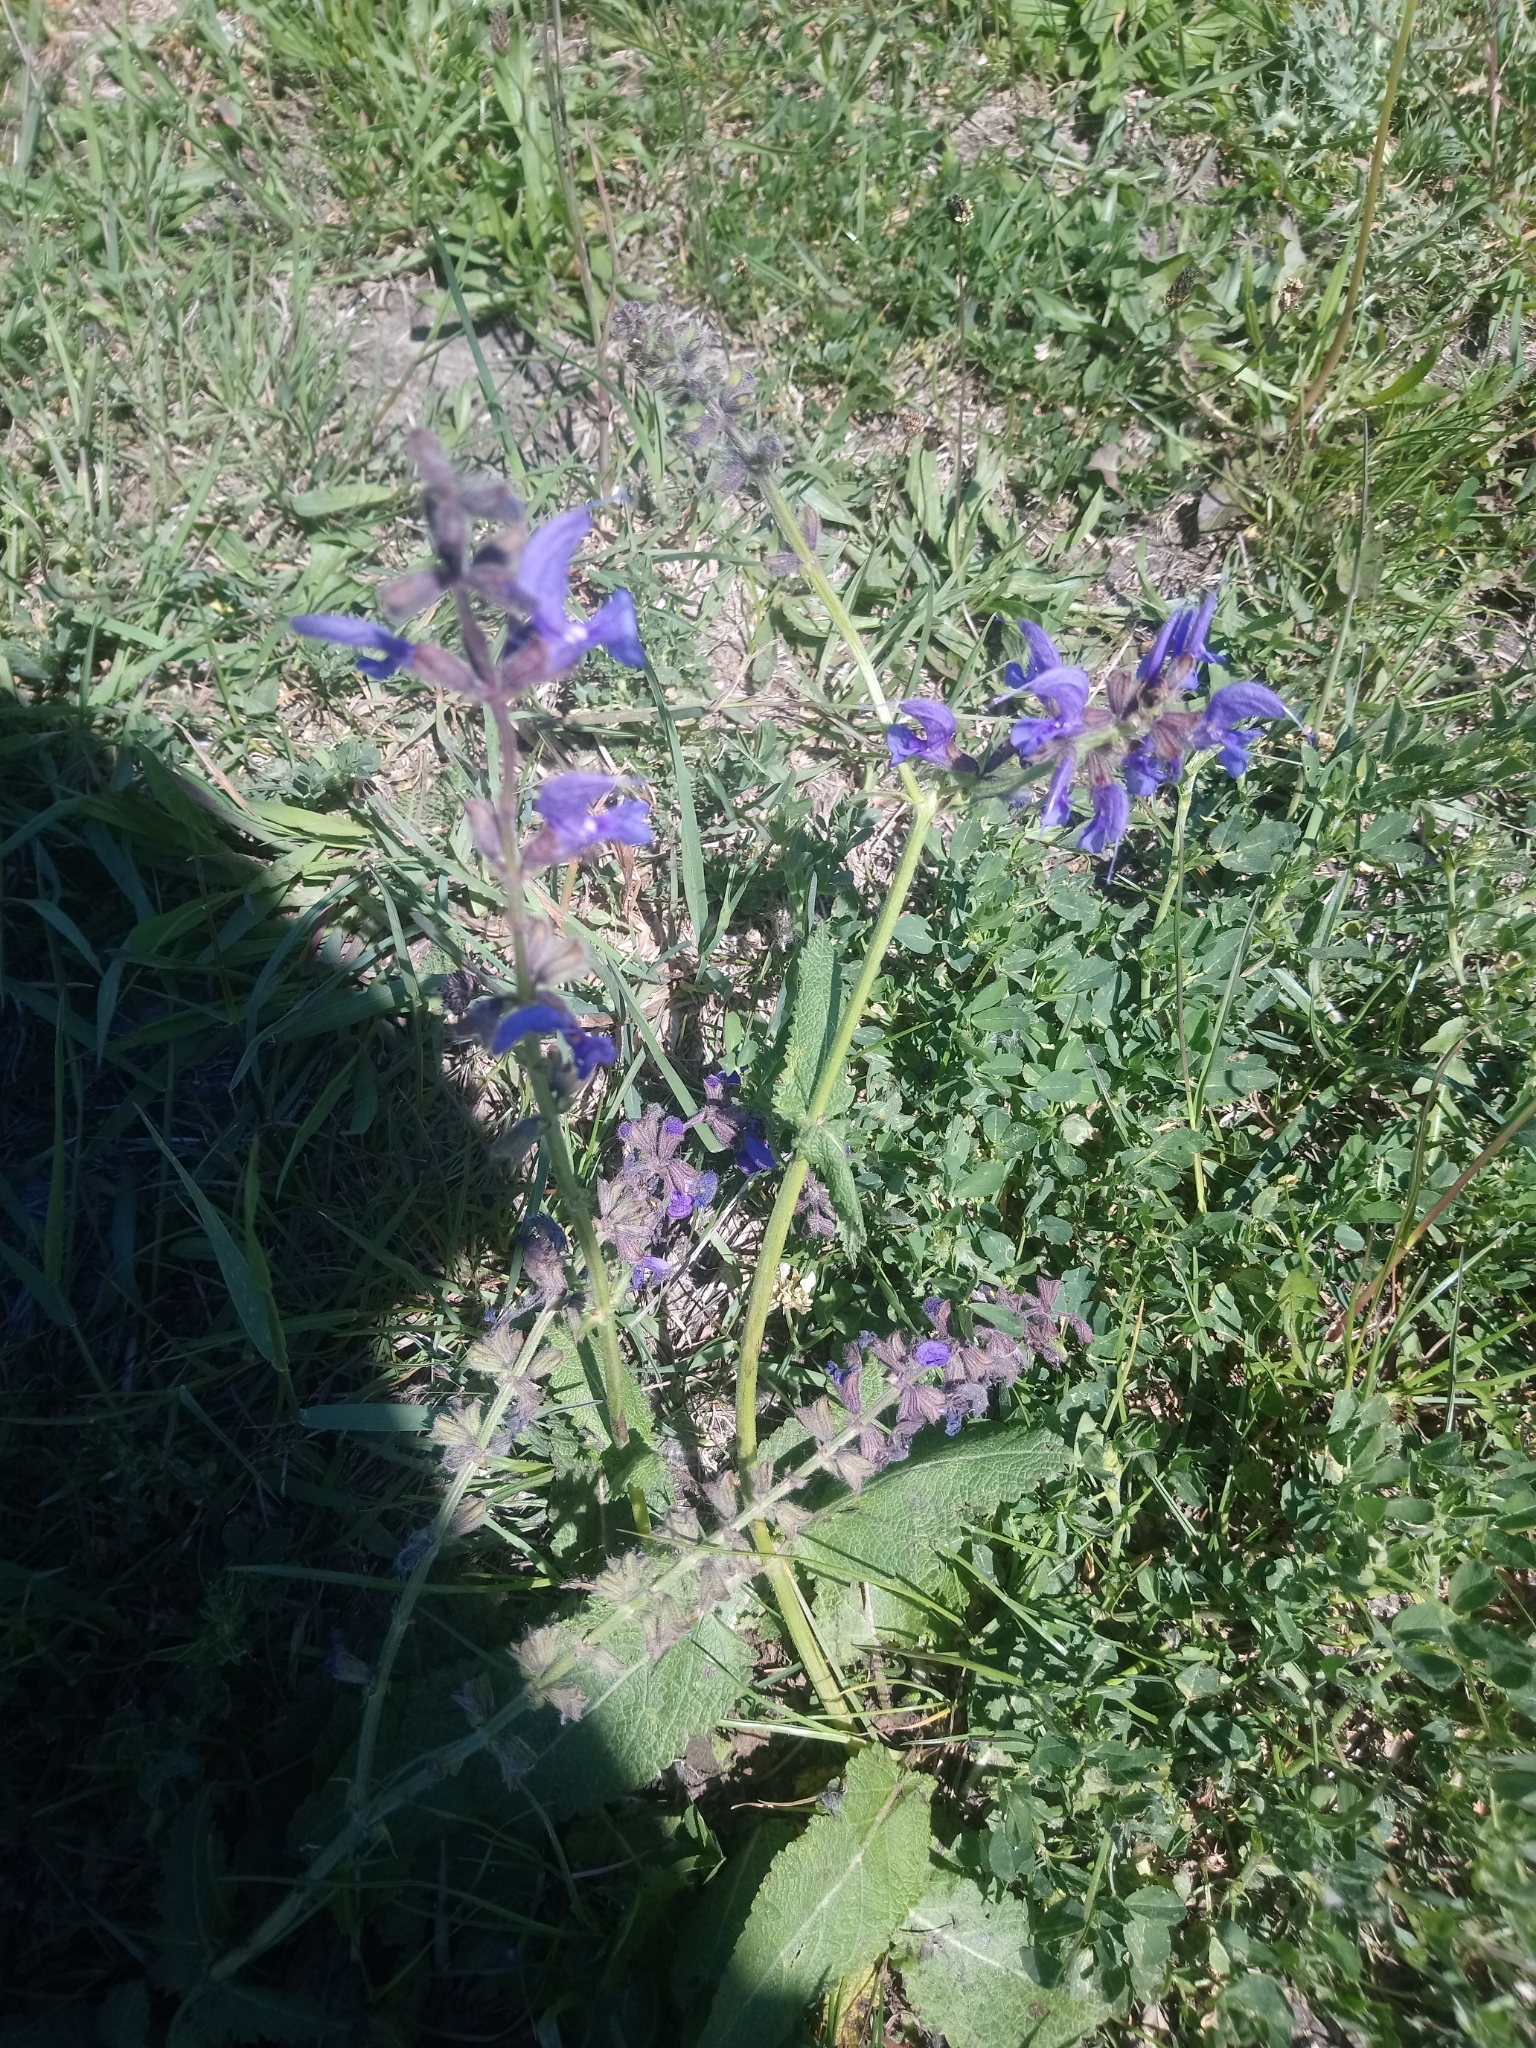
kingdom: Plantae
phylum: Tracheophyta
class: Magnoliopsida
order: Lamiales
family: Lamiaceae
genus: Salvia
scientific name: Salvia pratensis
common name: Meadow sage
